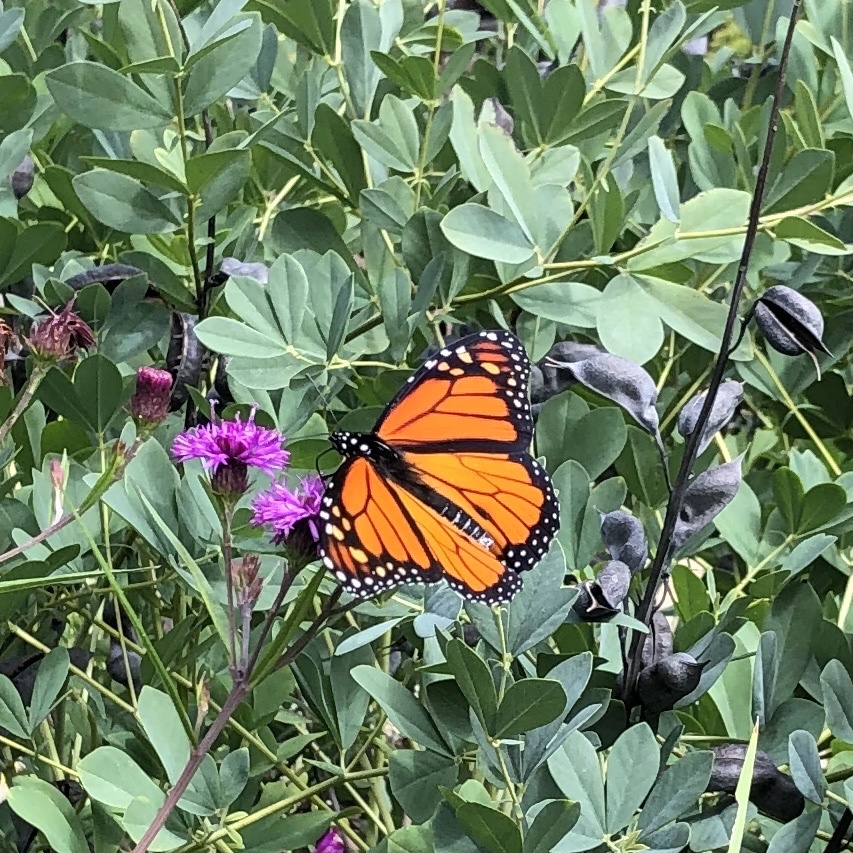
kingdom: Animalia
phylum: Arthropoda
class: Insecta
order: Lepidoptera
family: Nymphalidae
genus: Danaus
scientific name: Danaus plexippus
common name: Monarch
